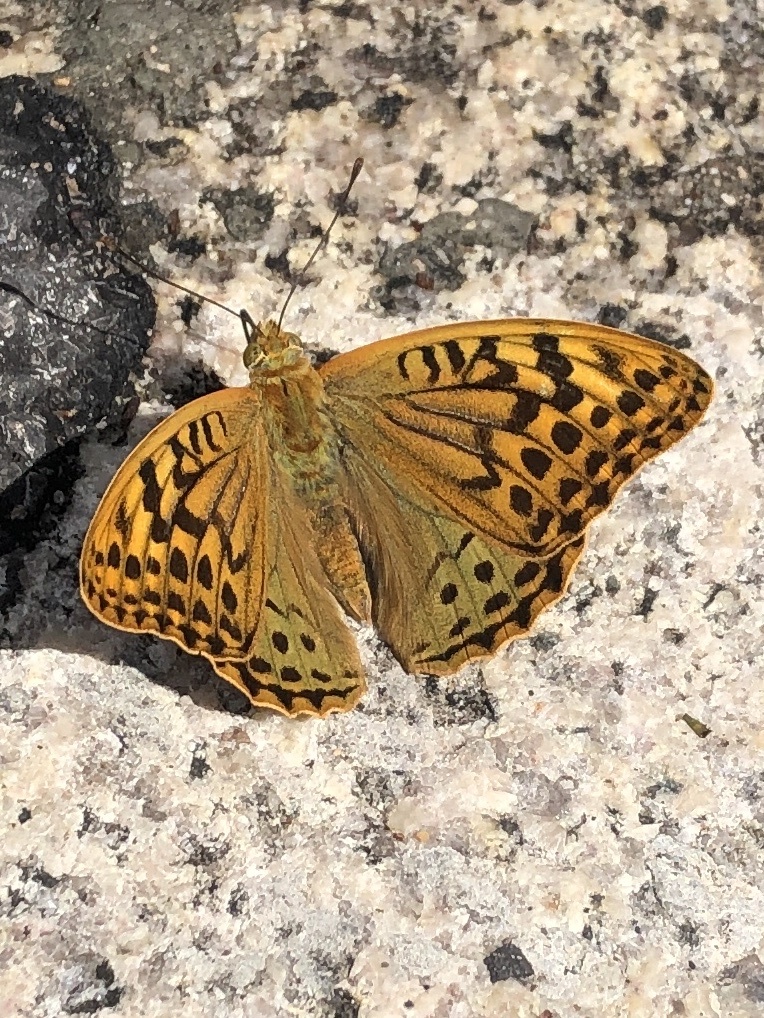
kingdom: Animalia
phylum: Arthropoda
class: Insecta
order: Lepidoptera
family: Nymphalidae
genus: Damora
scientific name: Damora pandora
